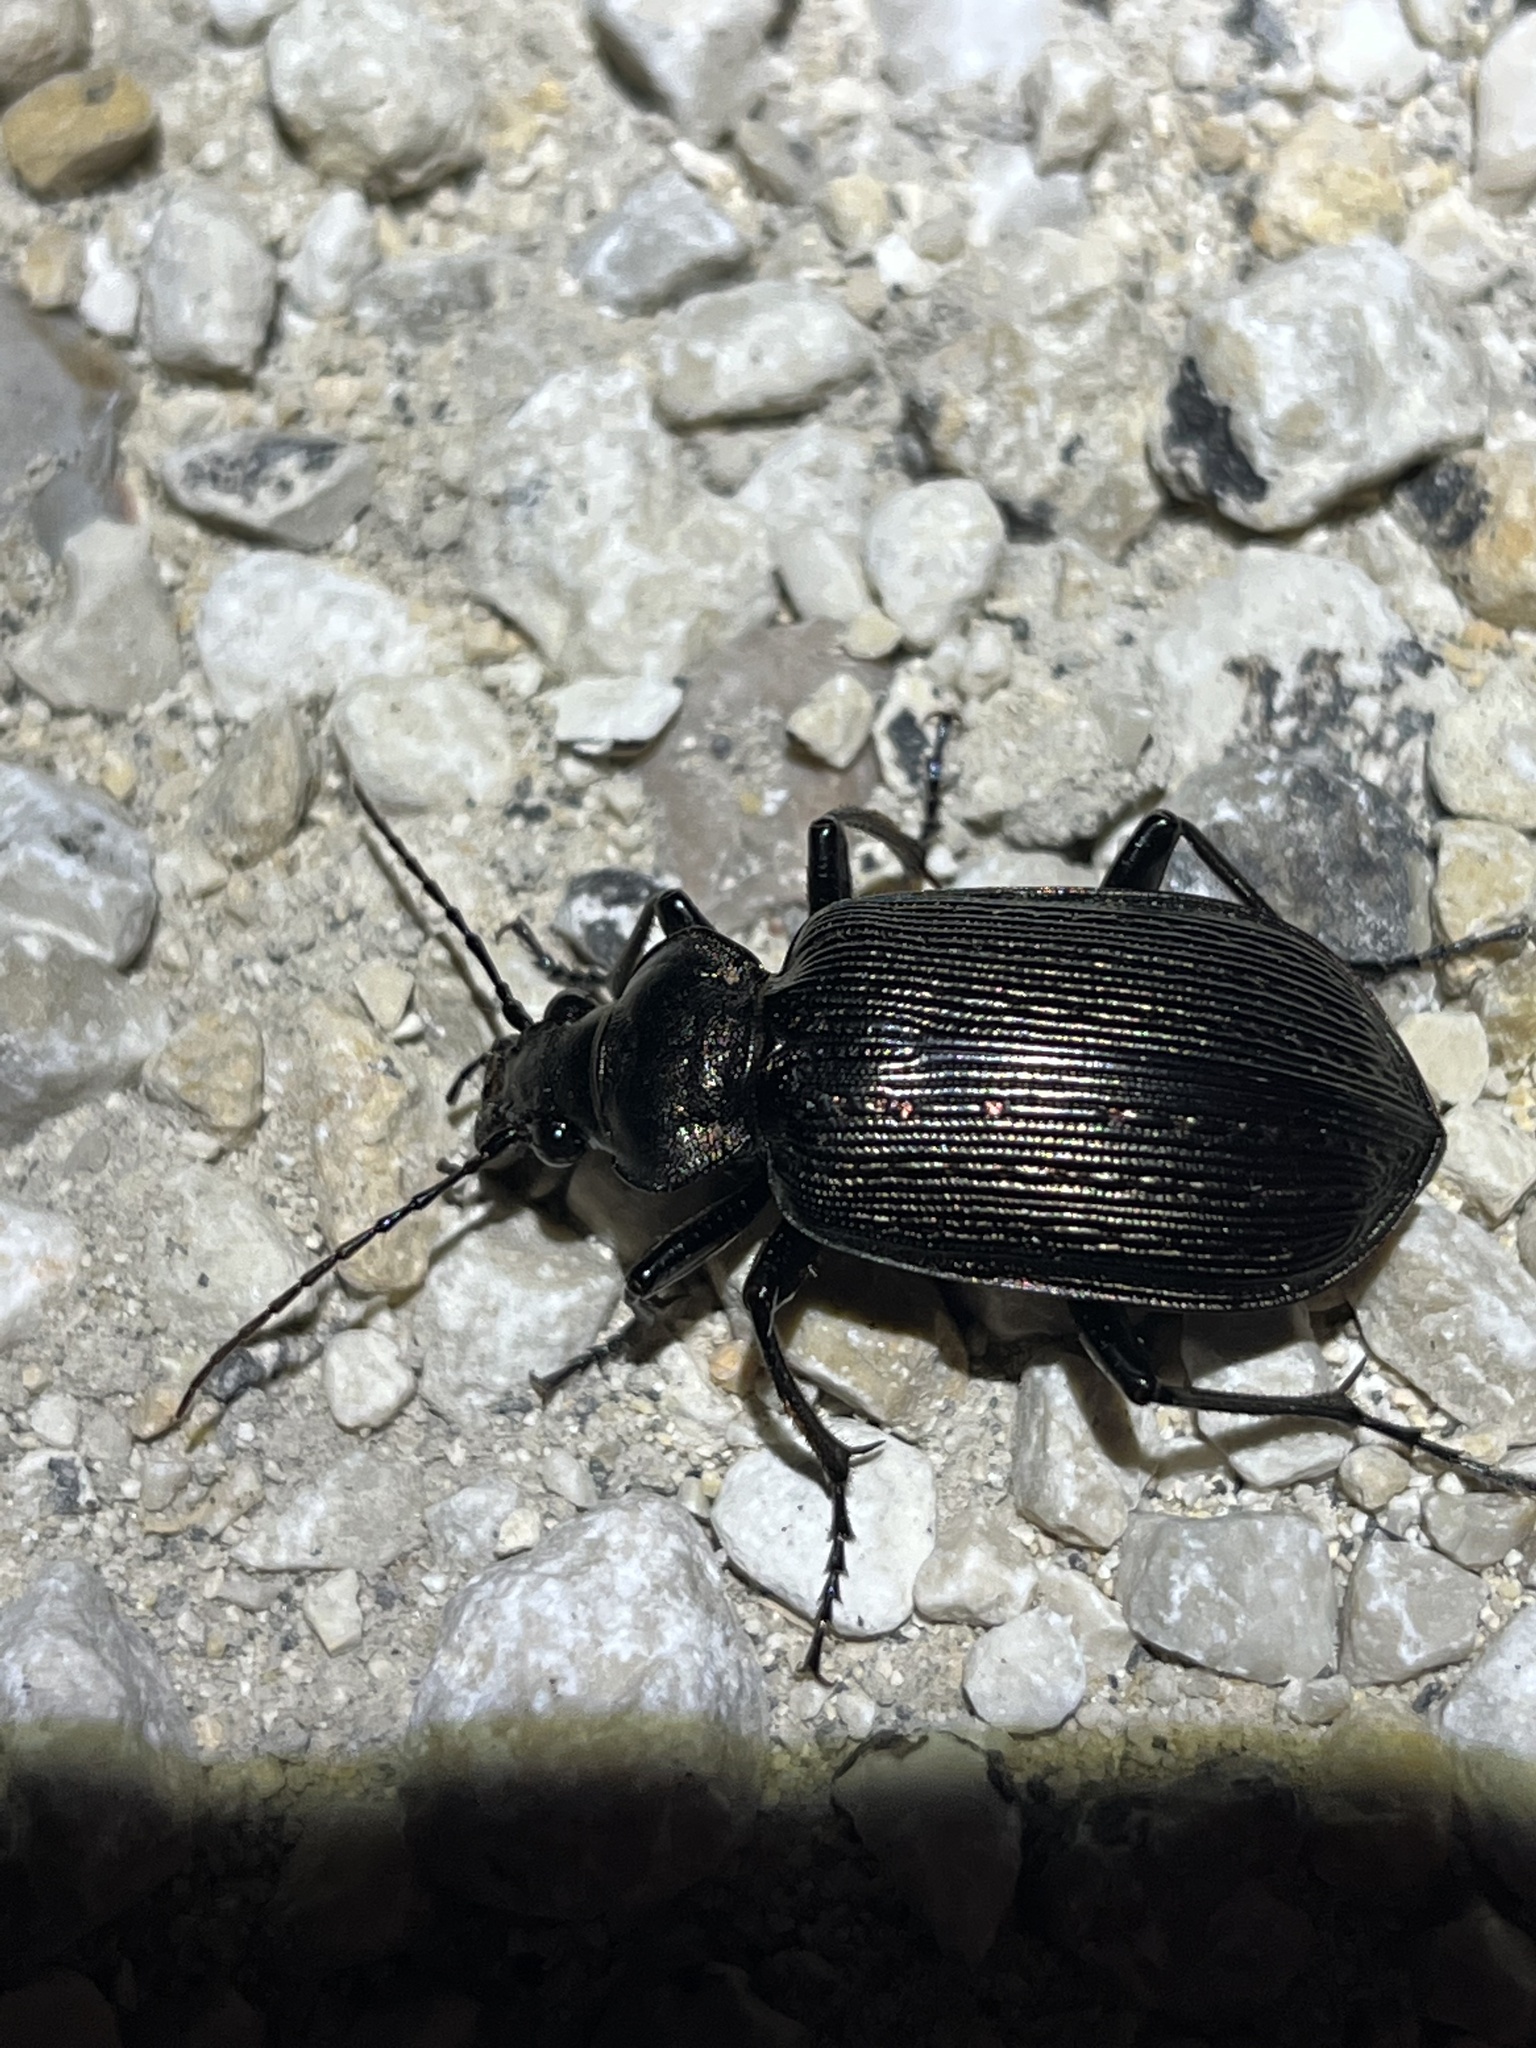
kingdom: Animalia
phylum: Arthropoda
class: Insecta
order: Coleoptera
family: Carabidae
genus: Calosoma
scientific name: Calosoma sayi
